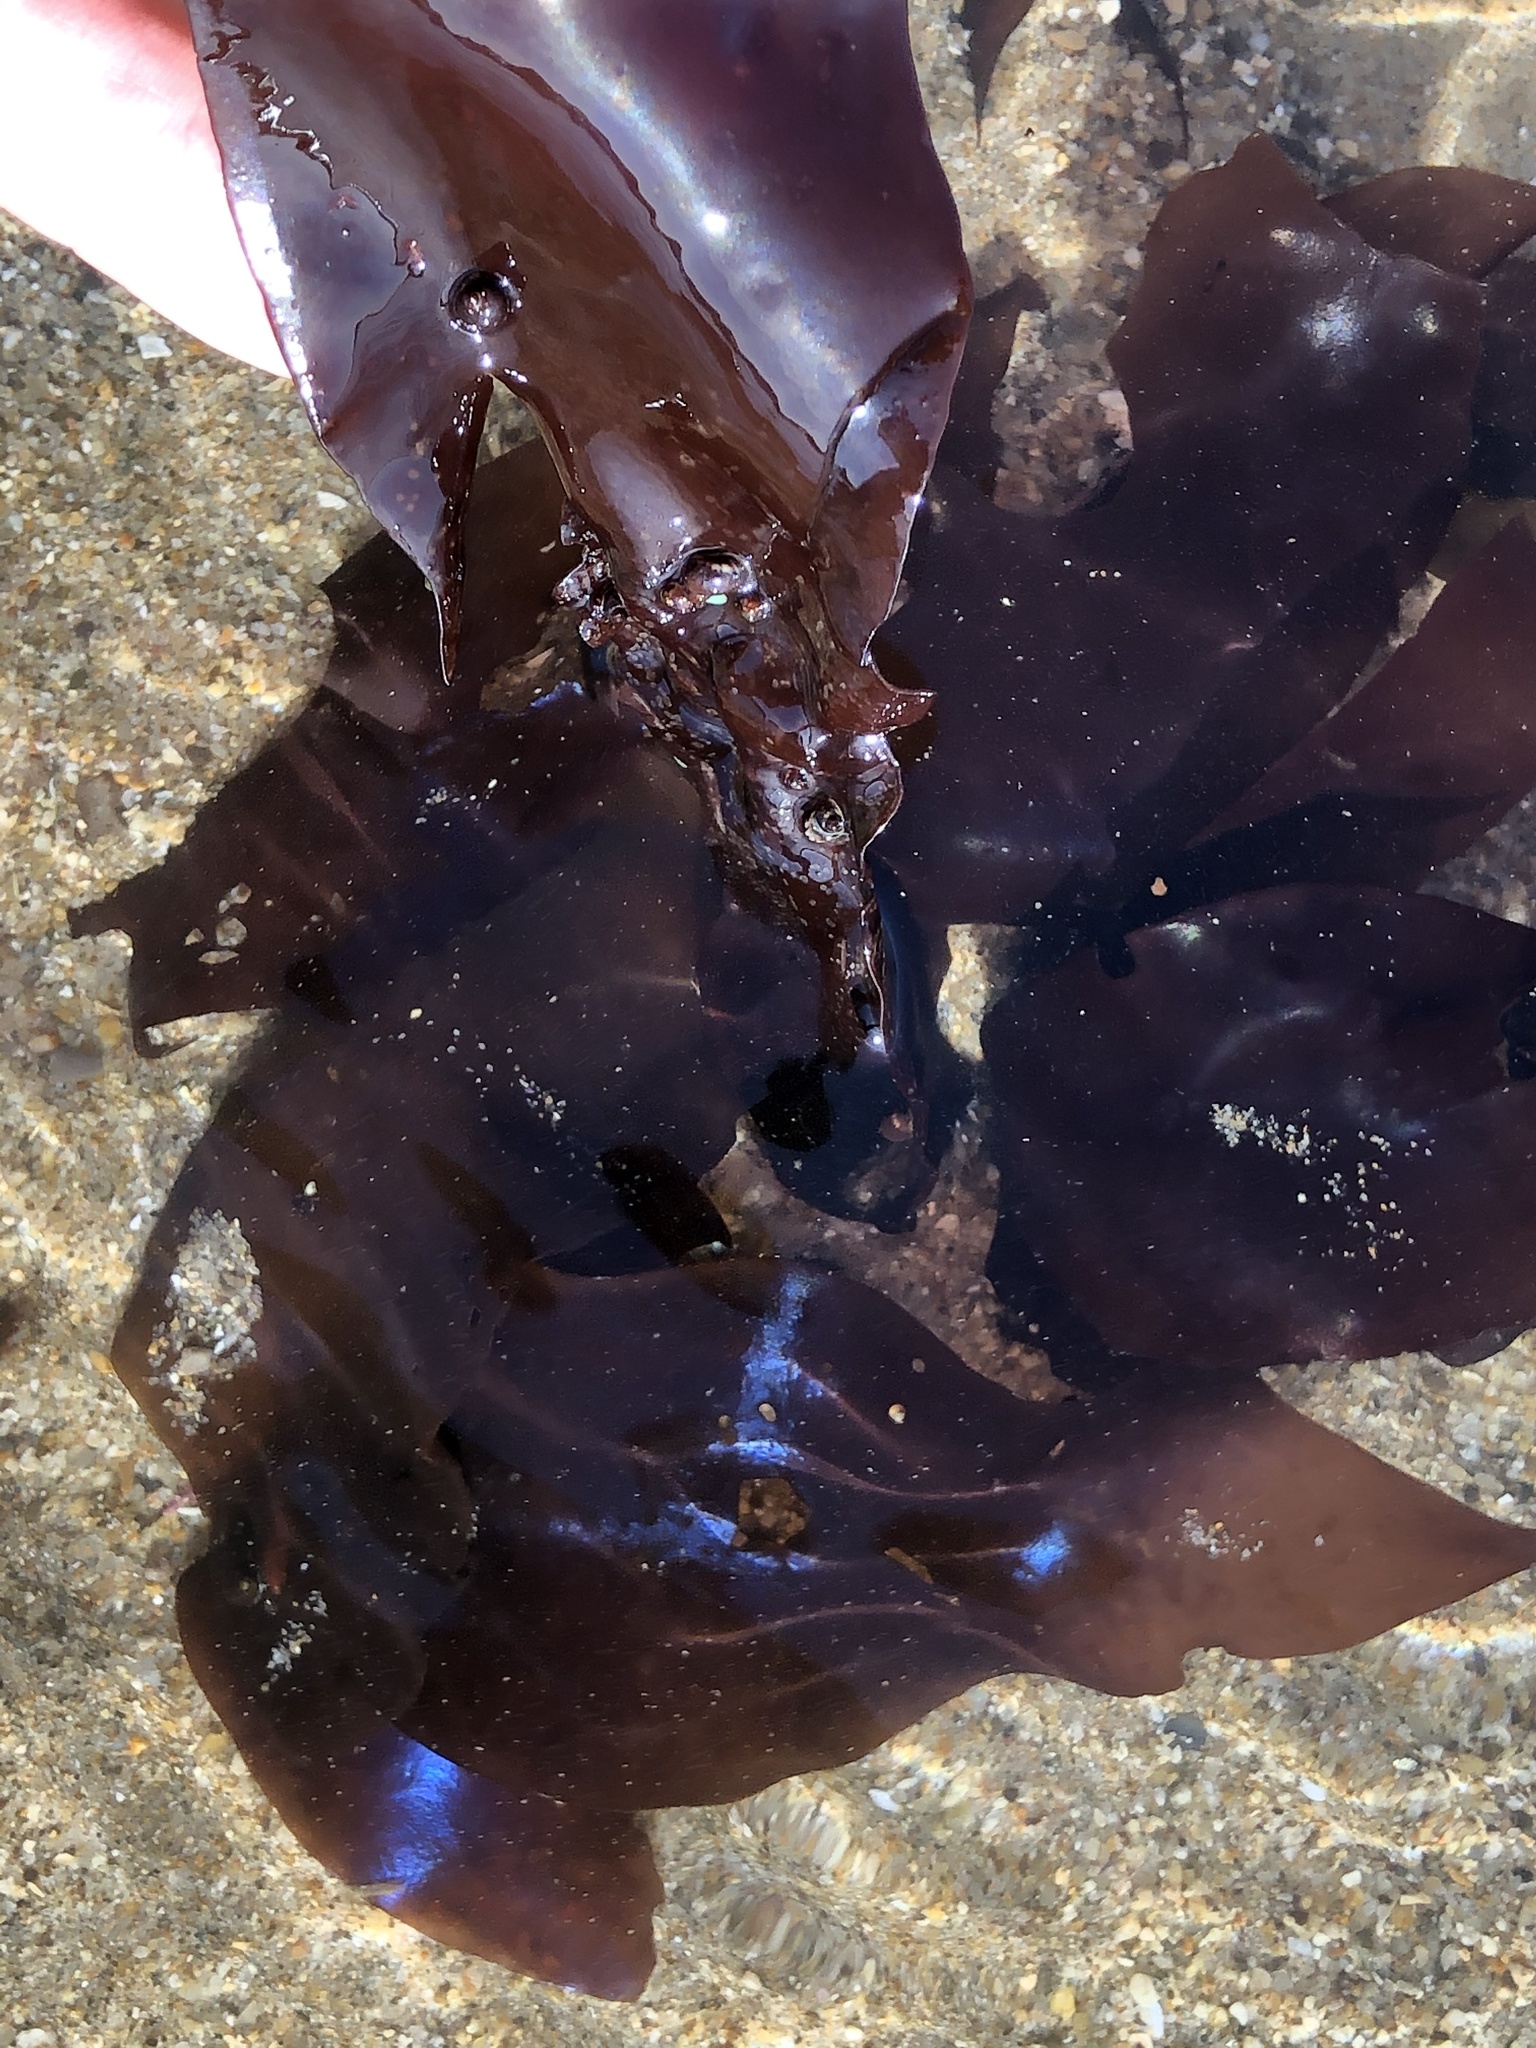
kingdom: Plantae
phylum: Rhodophyta
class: Florideophyceae
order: Gigartinales
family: Gigartinaceae
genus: Mazzaella
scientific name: Mazzaella splendens
